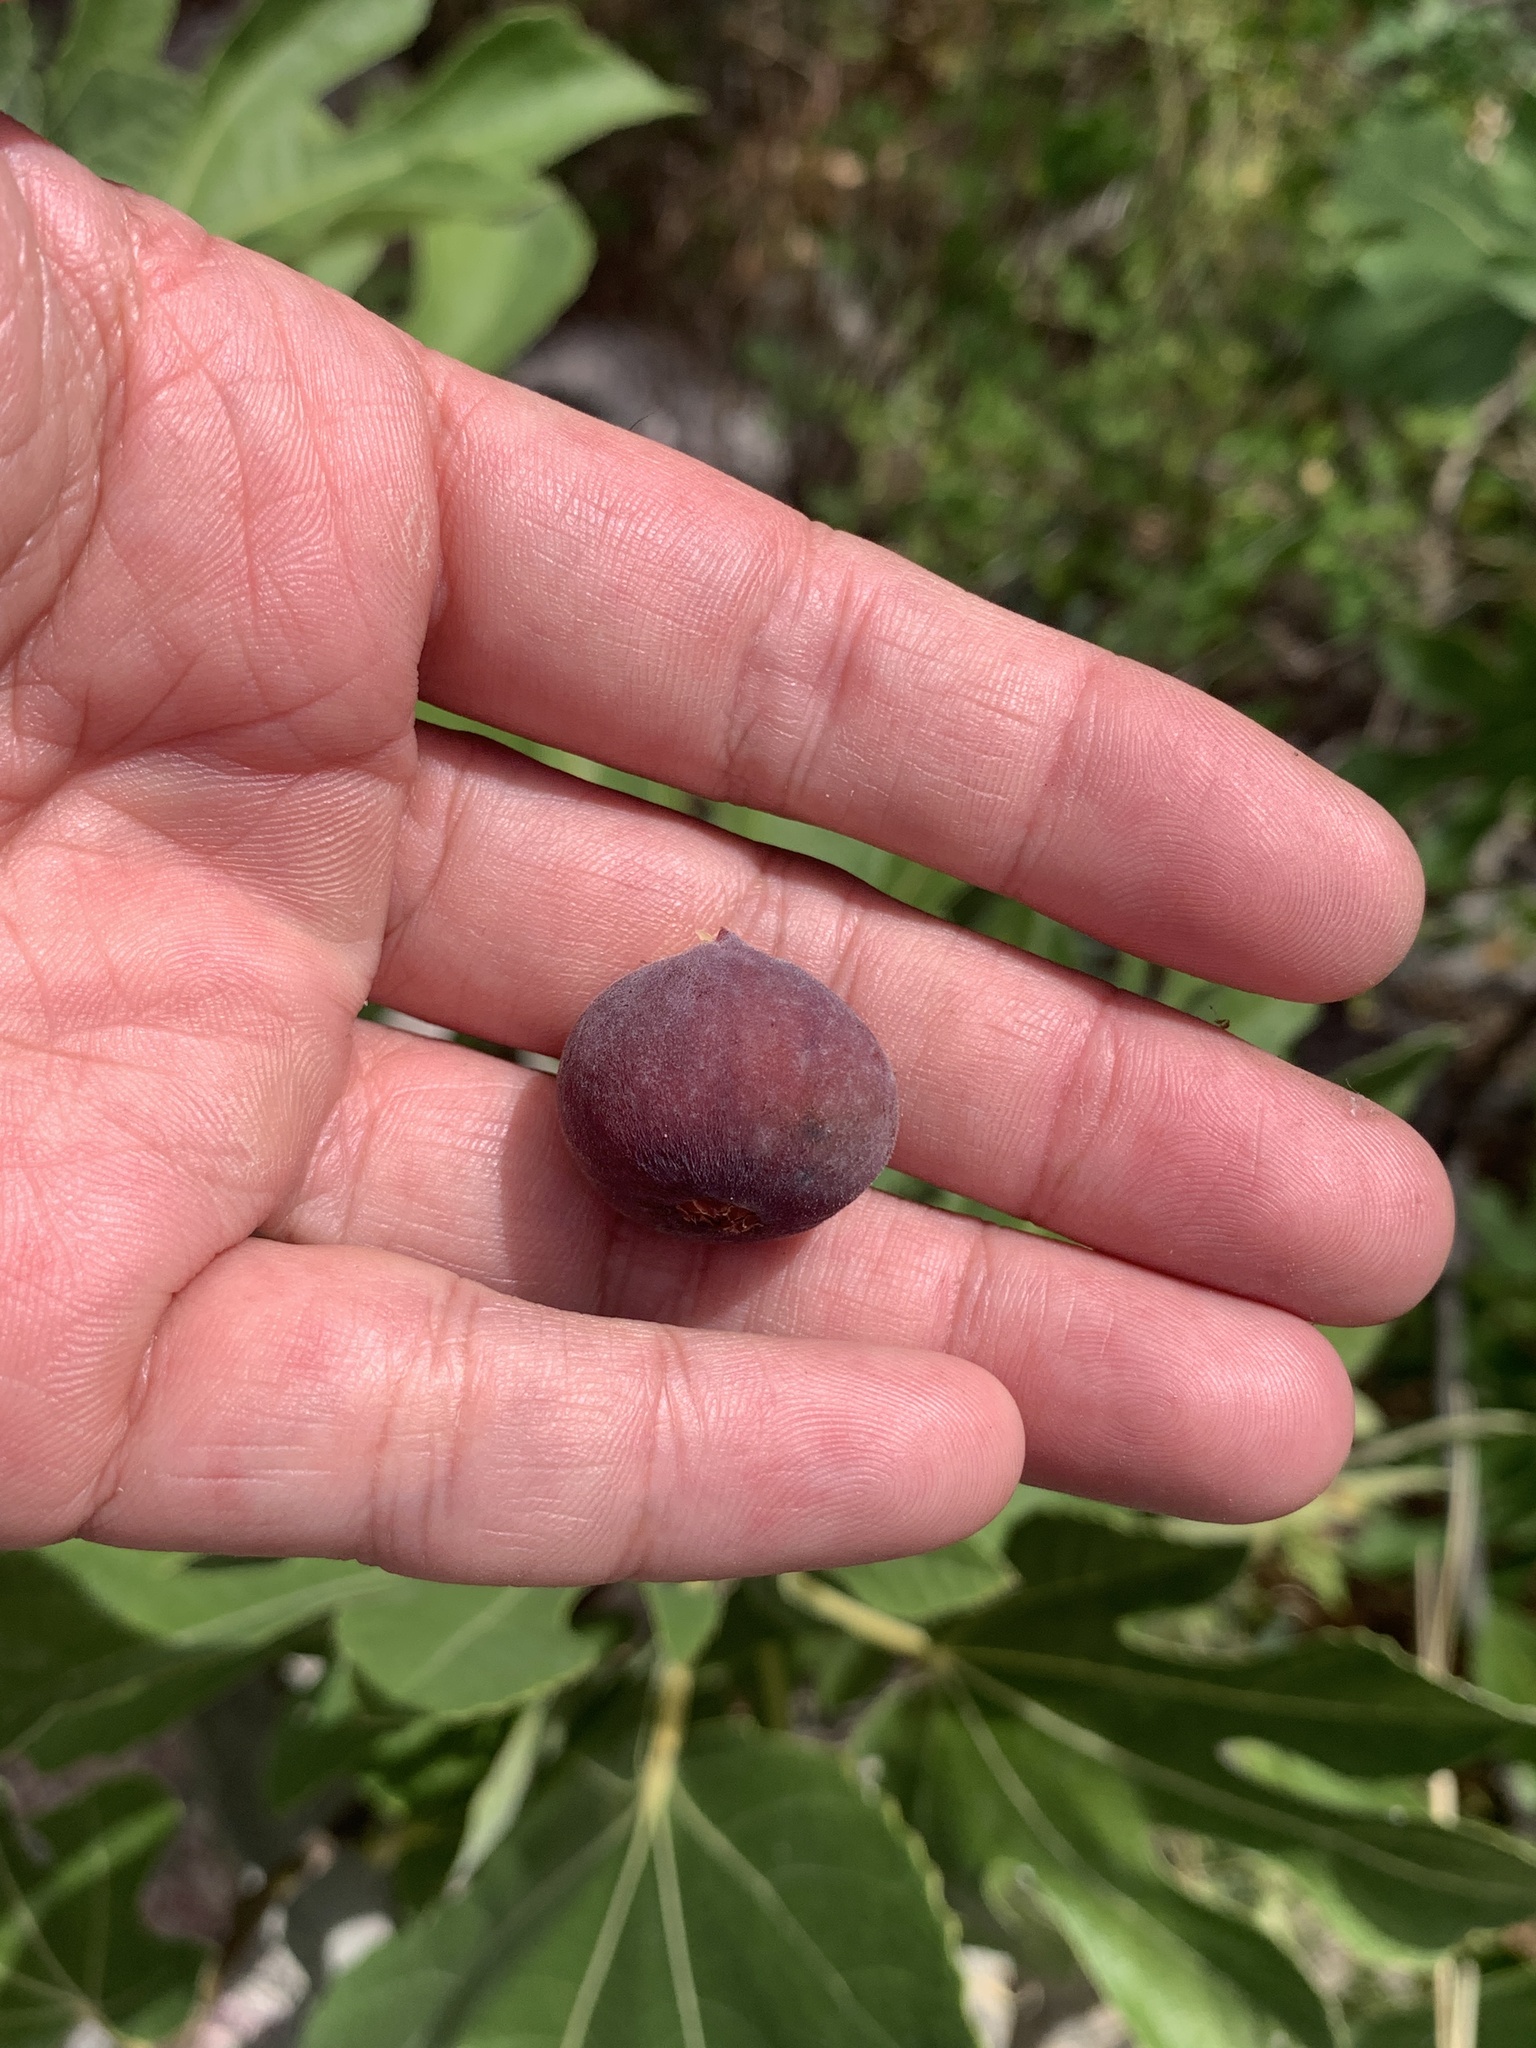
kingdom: Plantae
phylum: Tracheophyta
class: Magnoliopsida
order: Rosales
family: Moraceae
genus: Ficus
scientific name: Ficus carica
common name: Fig
